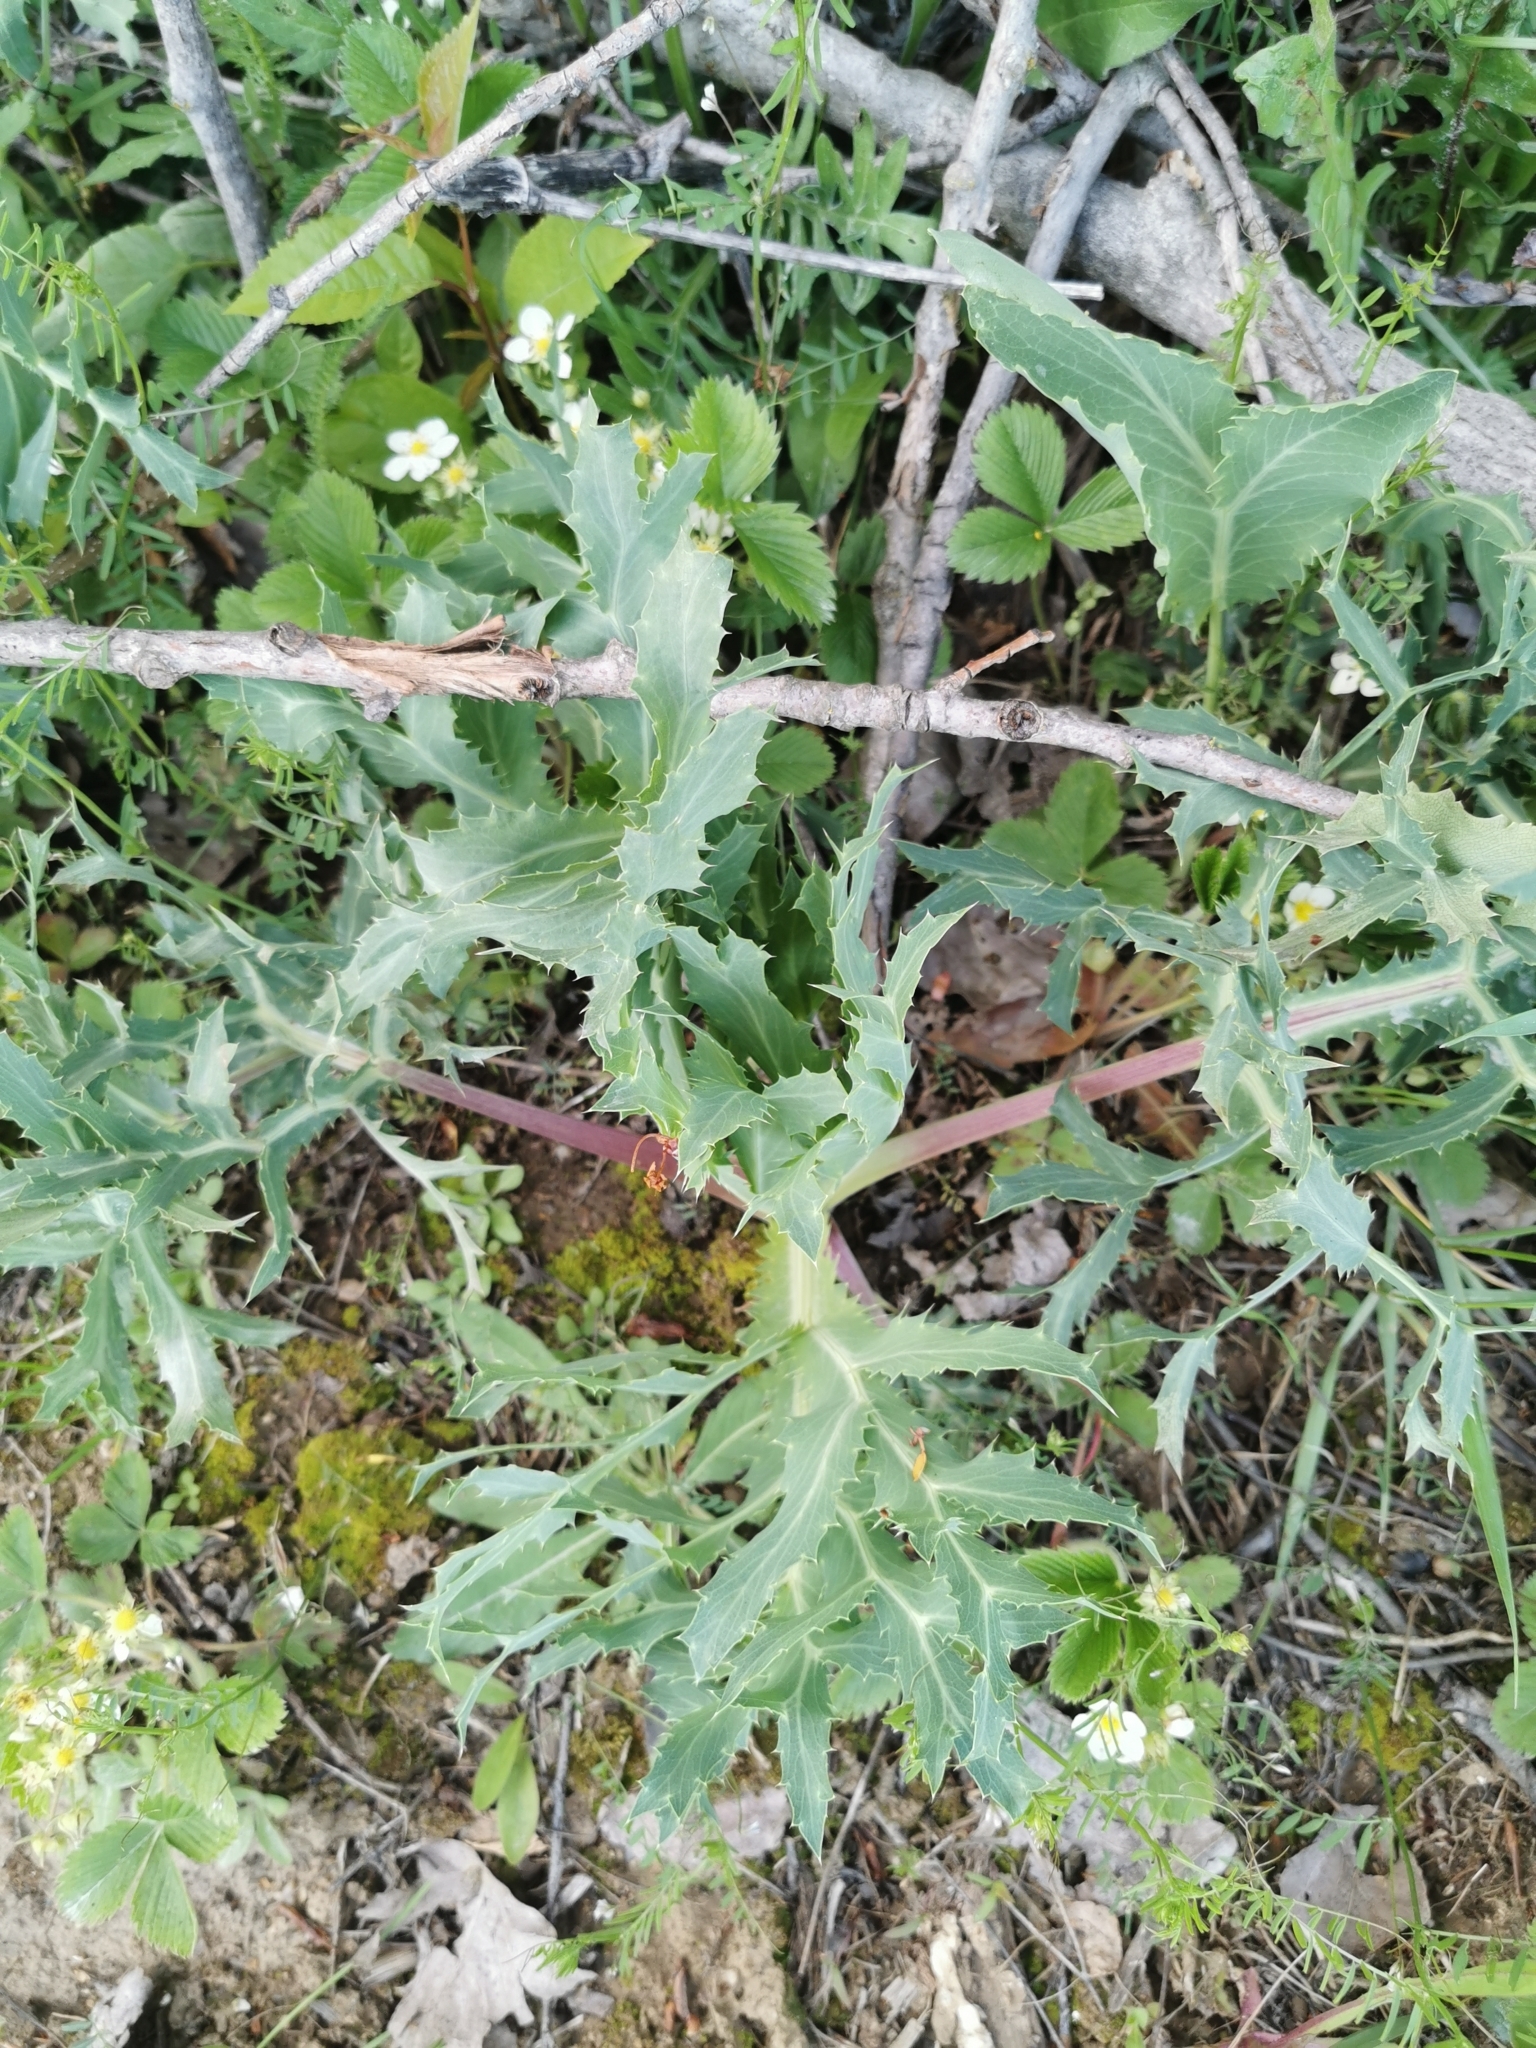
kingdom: Plantae
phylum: Tracheophyta
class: Magnoliopsida
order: Apiales
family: Apiaceae
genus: Eryngium
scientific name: Eryngium campestre
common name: Field eryngo
